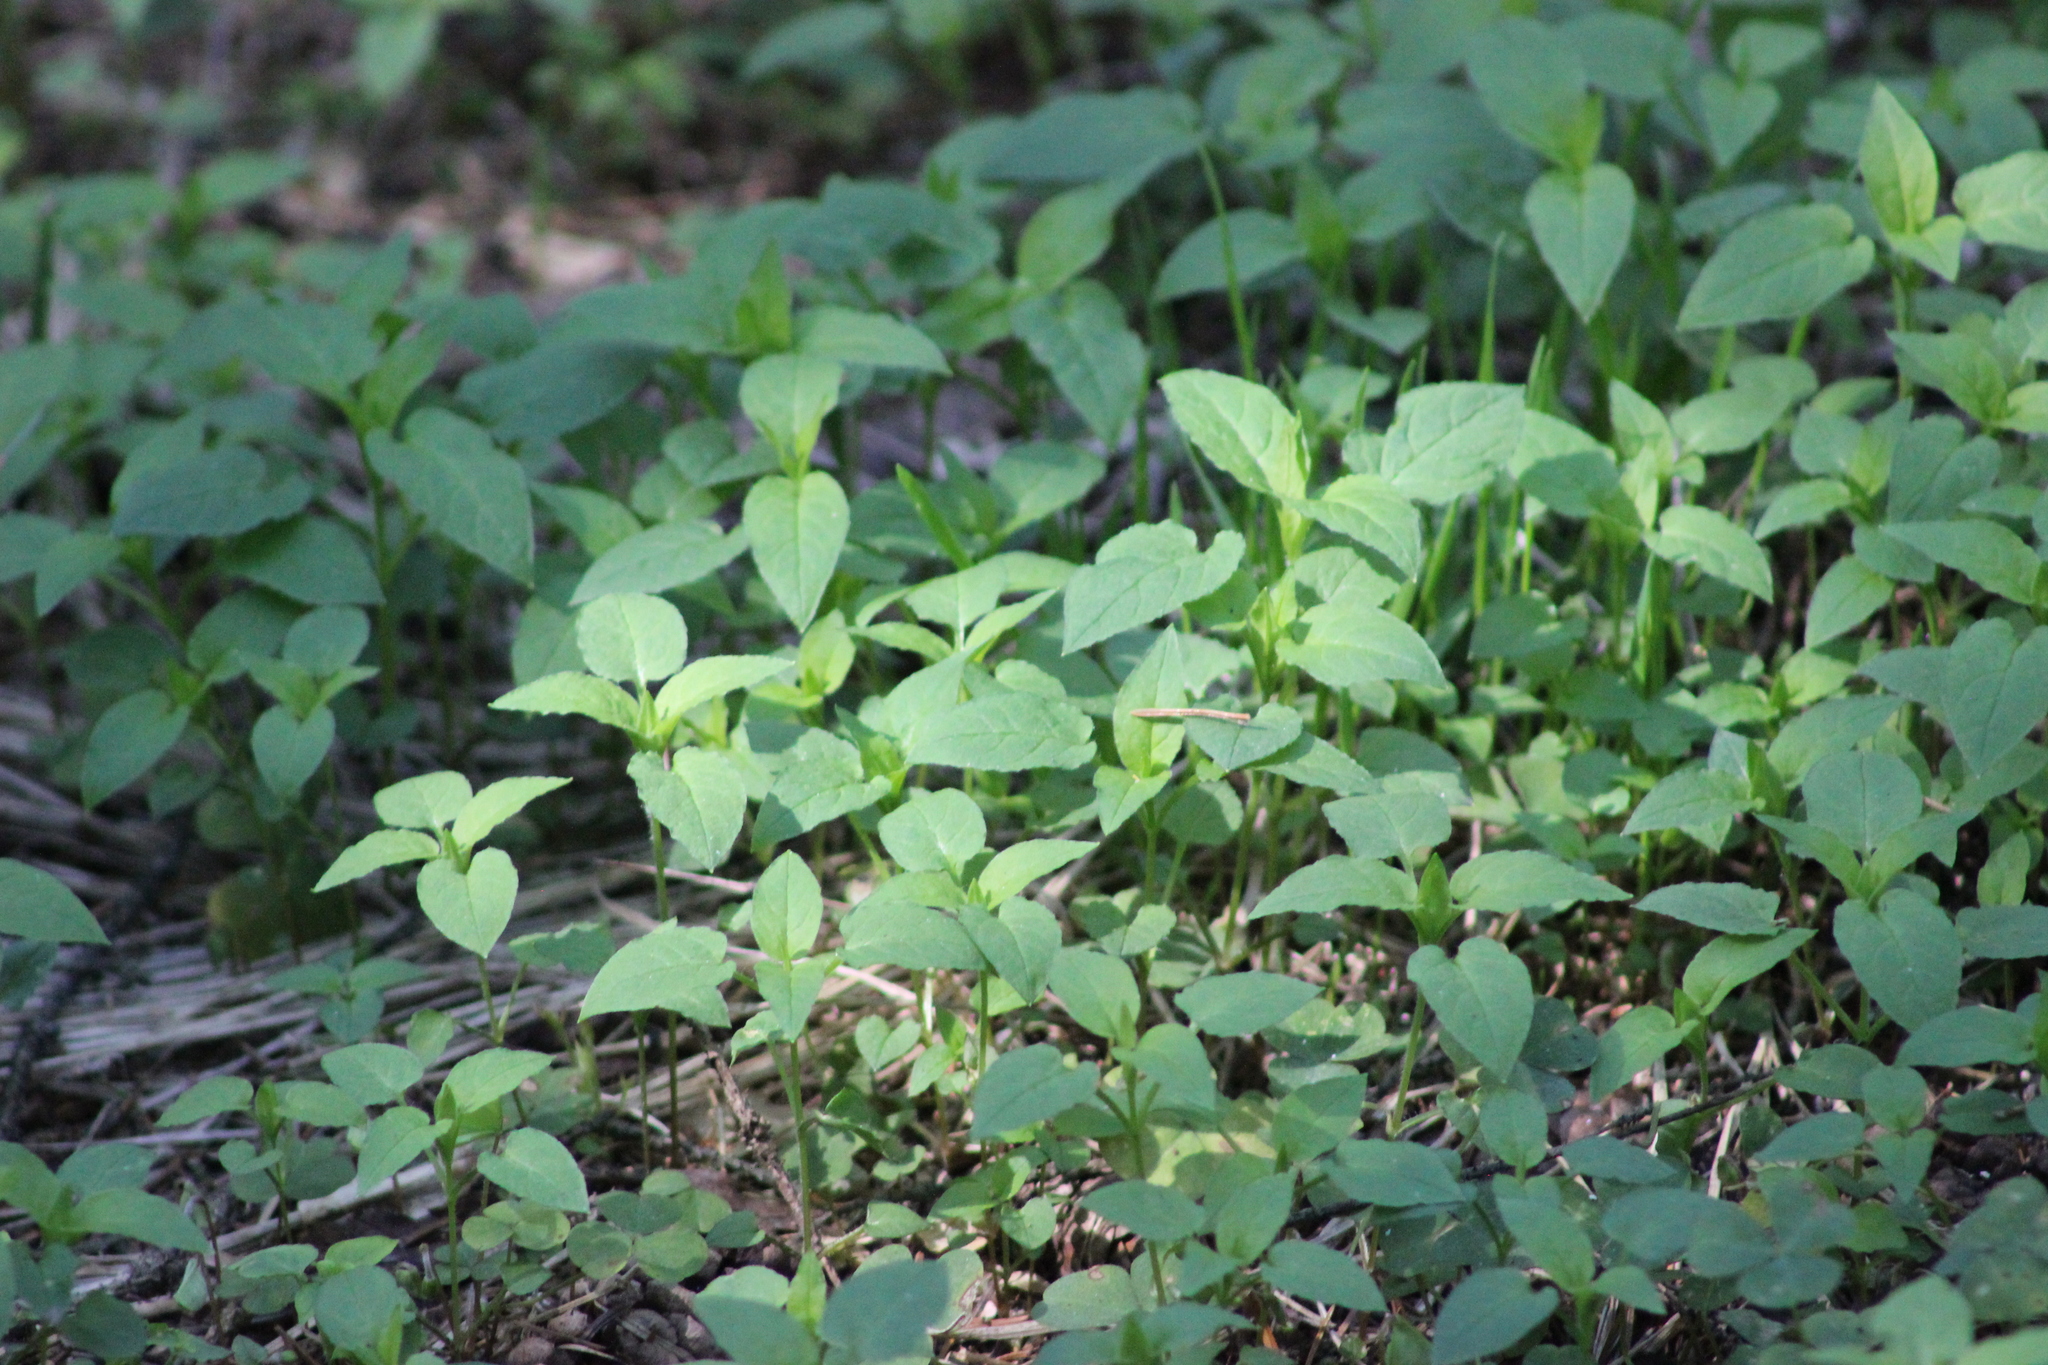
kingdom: Plantae
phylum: Tracheophyta
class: Magnoliopsida
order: Caryophyllales
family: Caryophyllaceae
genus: Stellaria
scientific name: Stellaria bungeana
